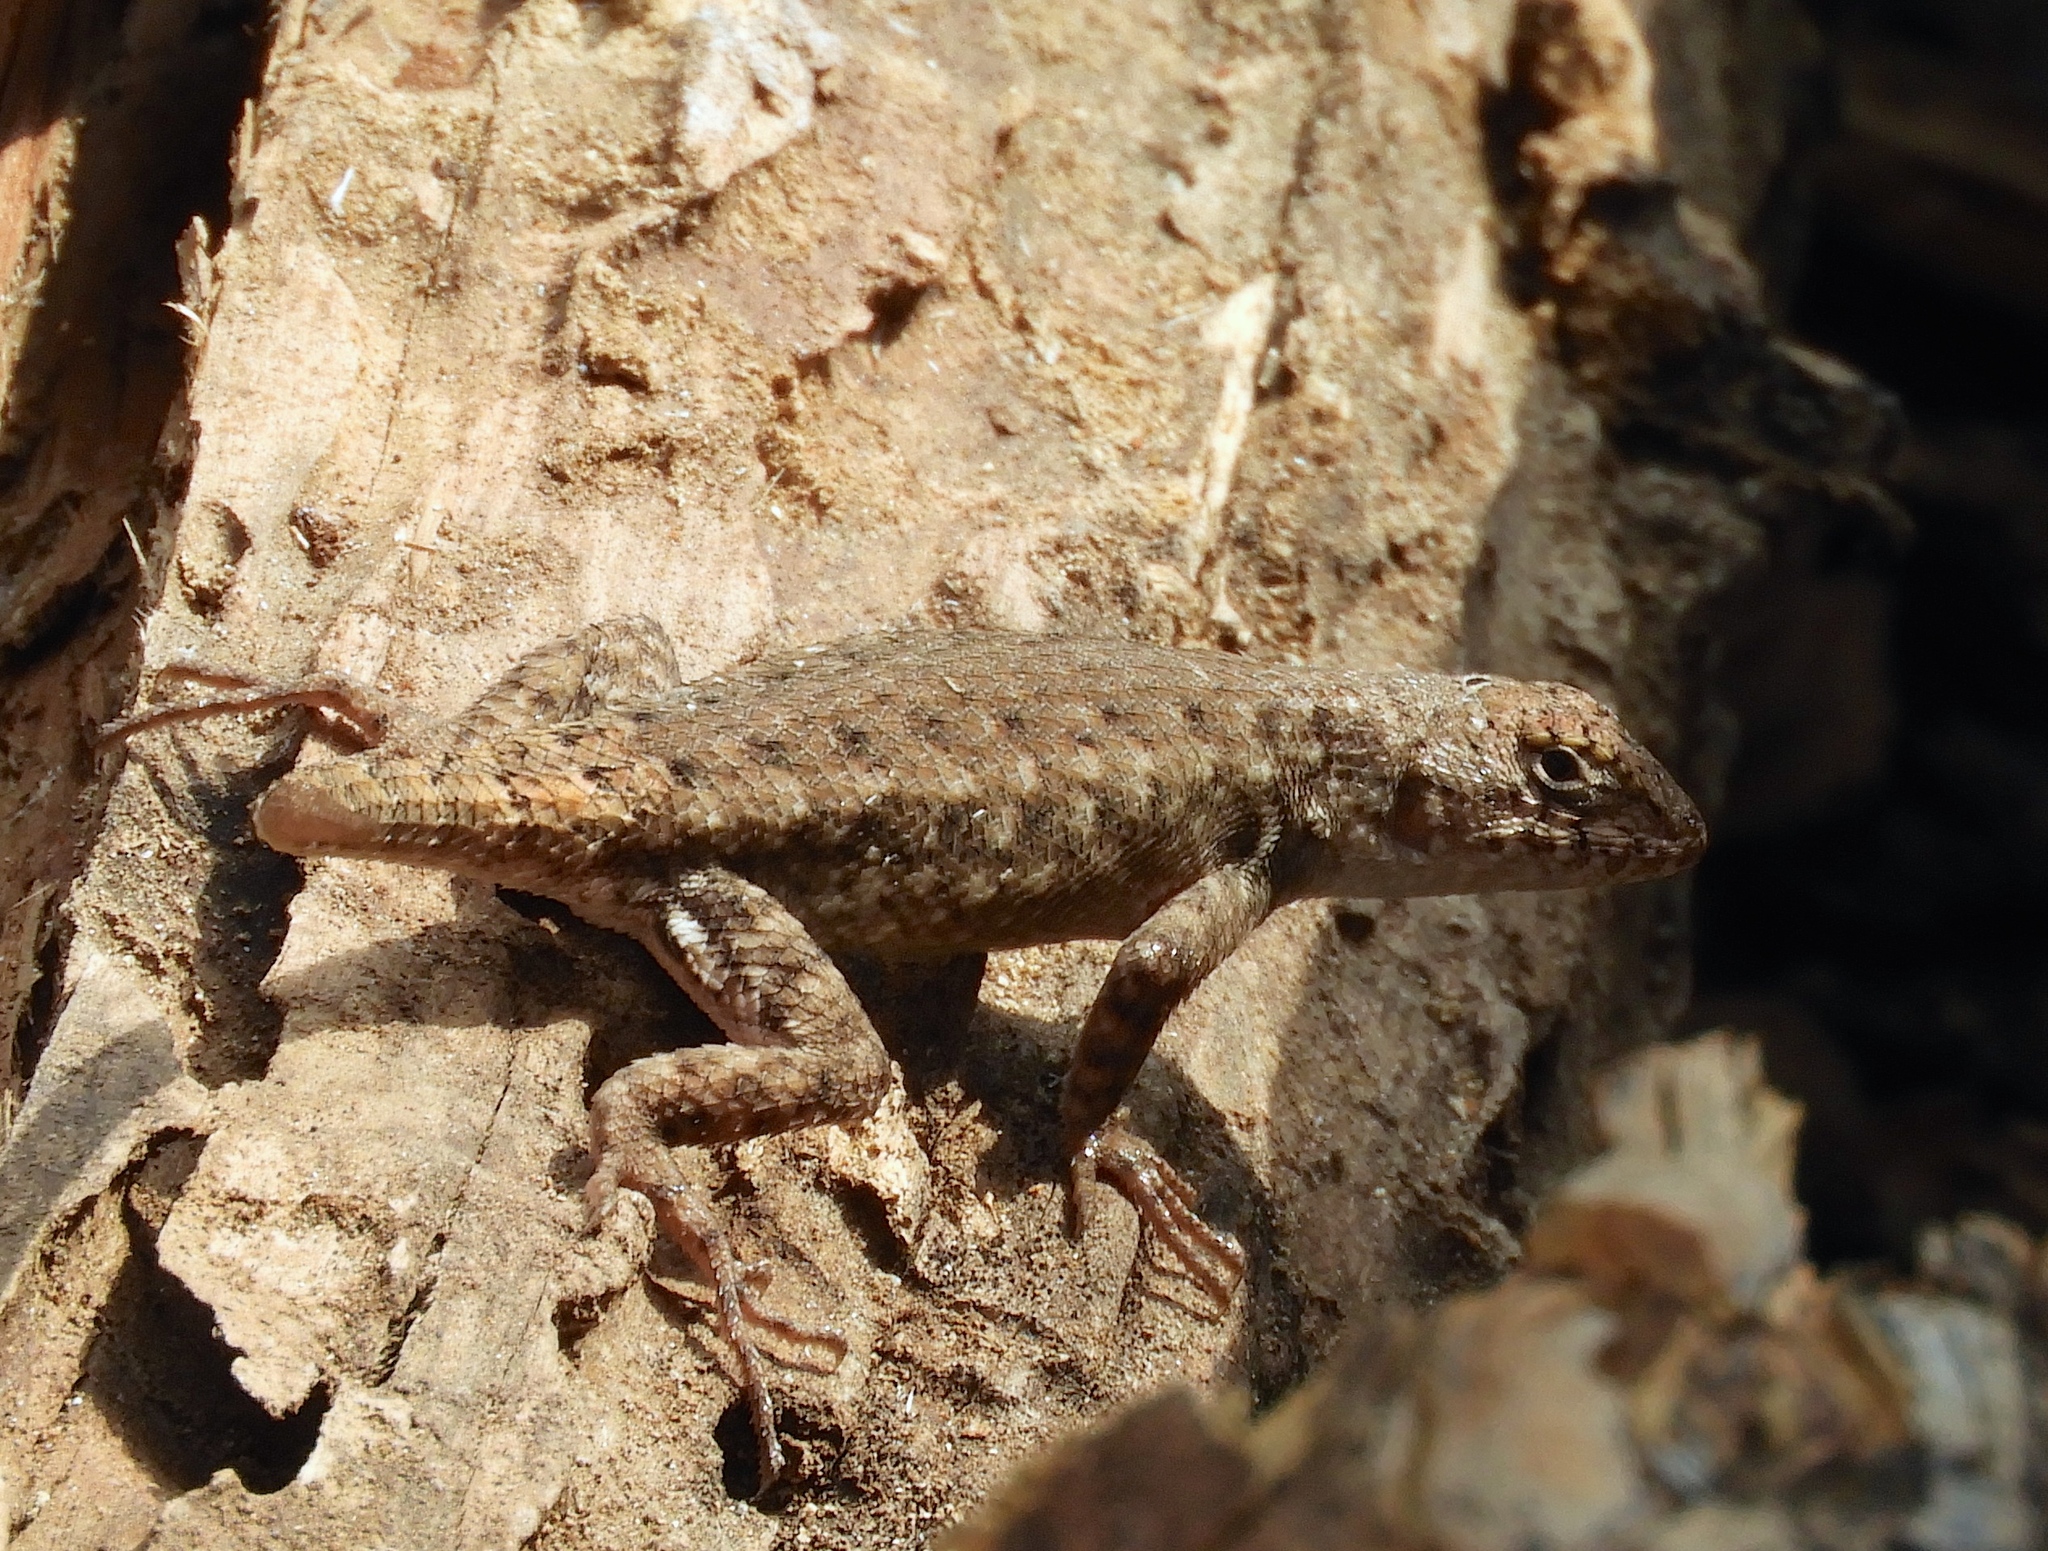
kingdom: Animalia
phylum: Chordata
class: Squamata
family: Phrynosomatidae
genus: Sceloporus
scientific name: Sceloporus nelsoni
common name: Nelson's spiny lizard
